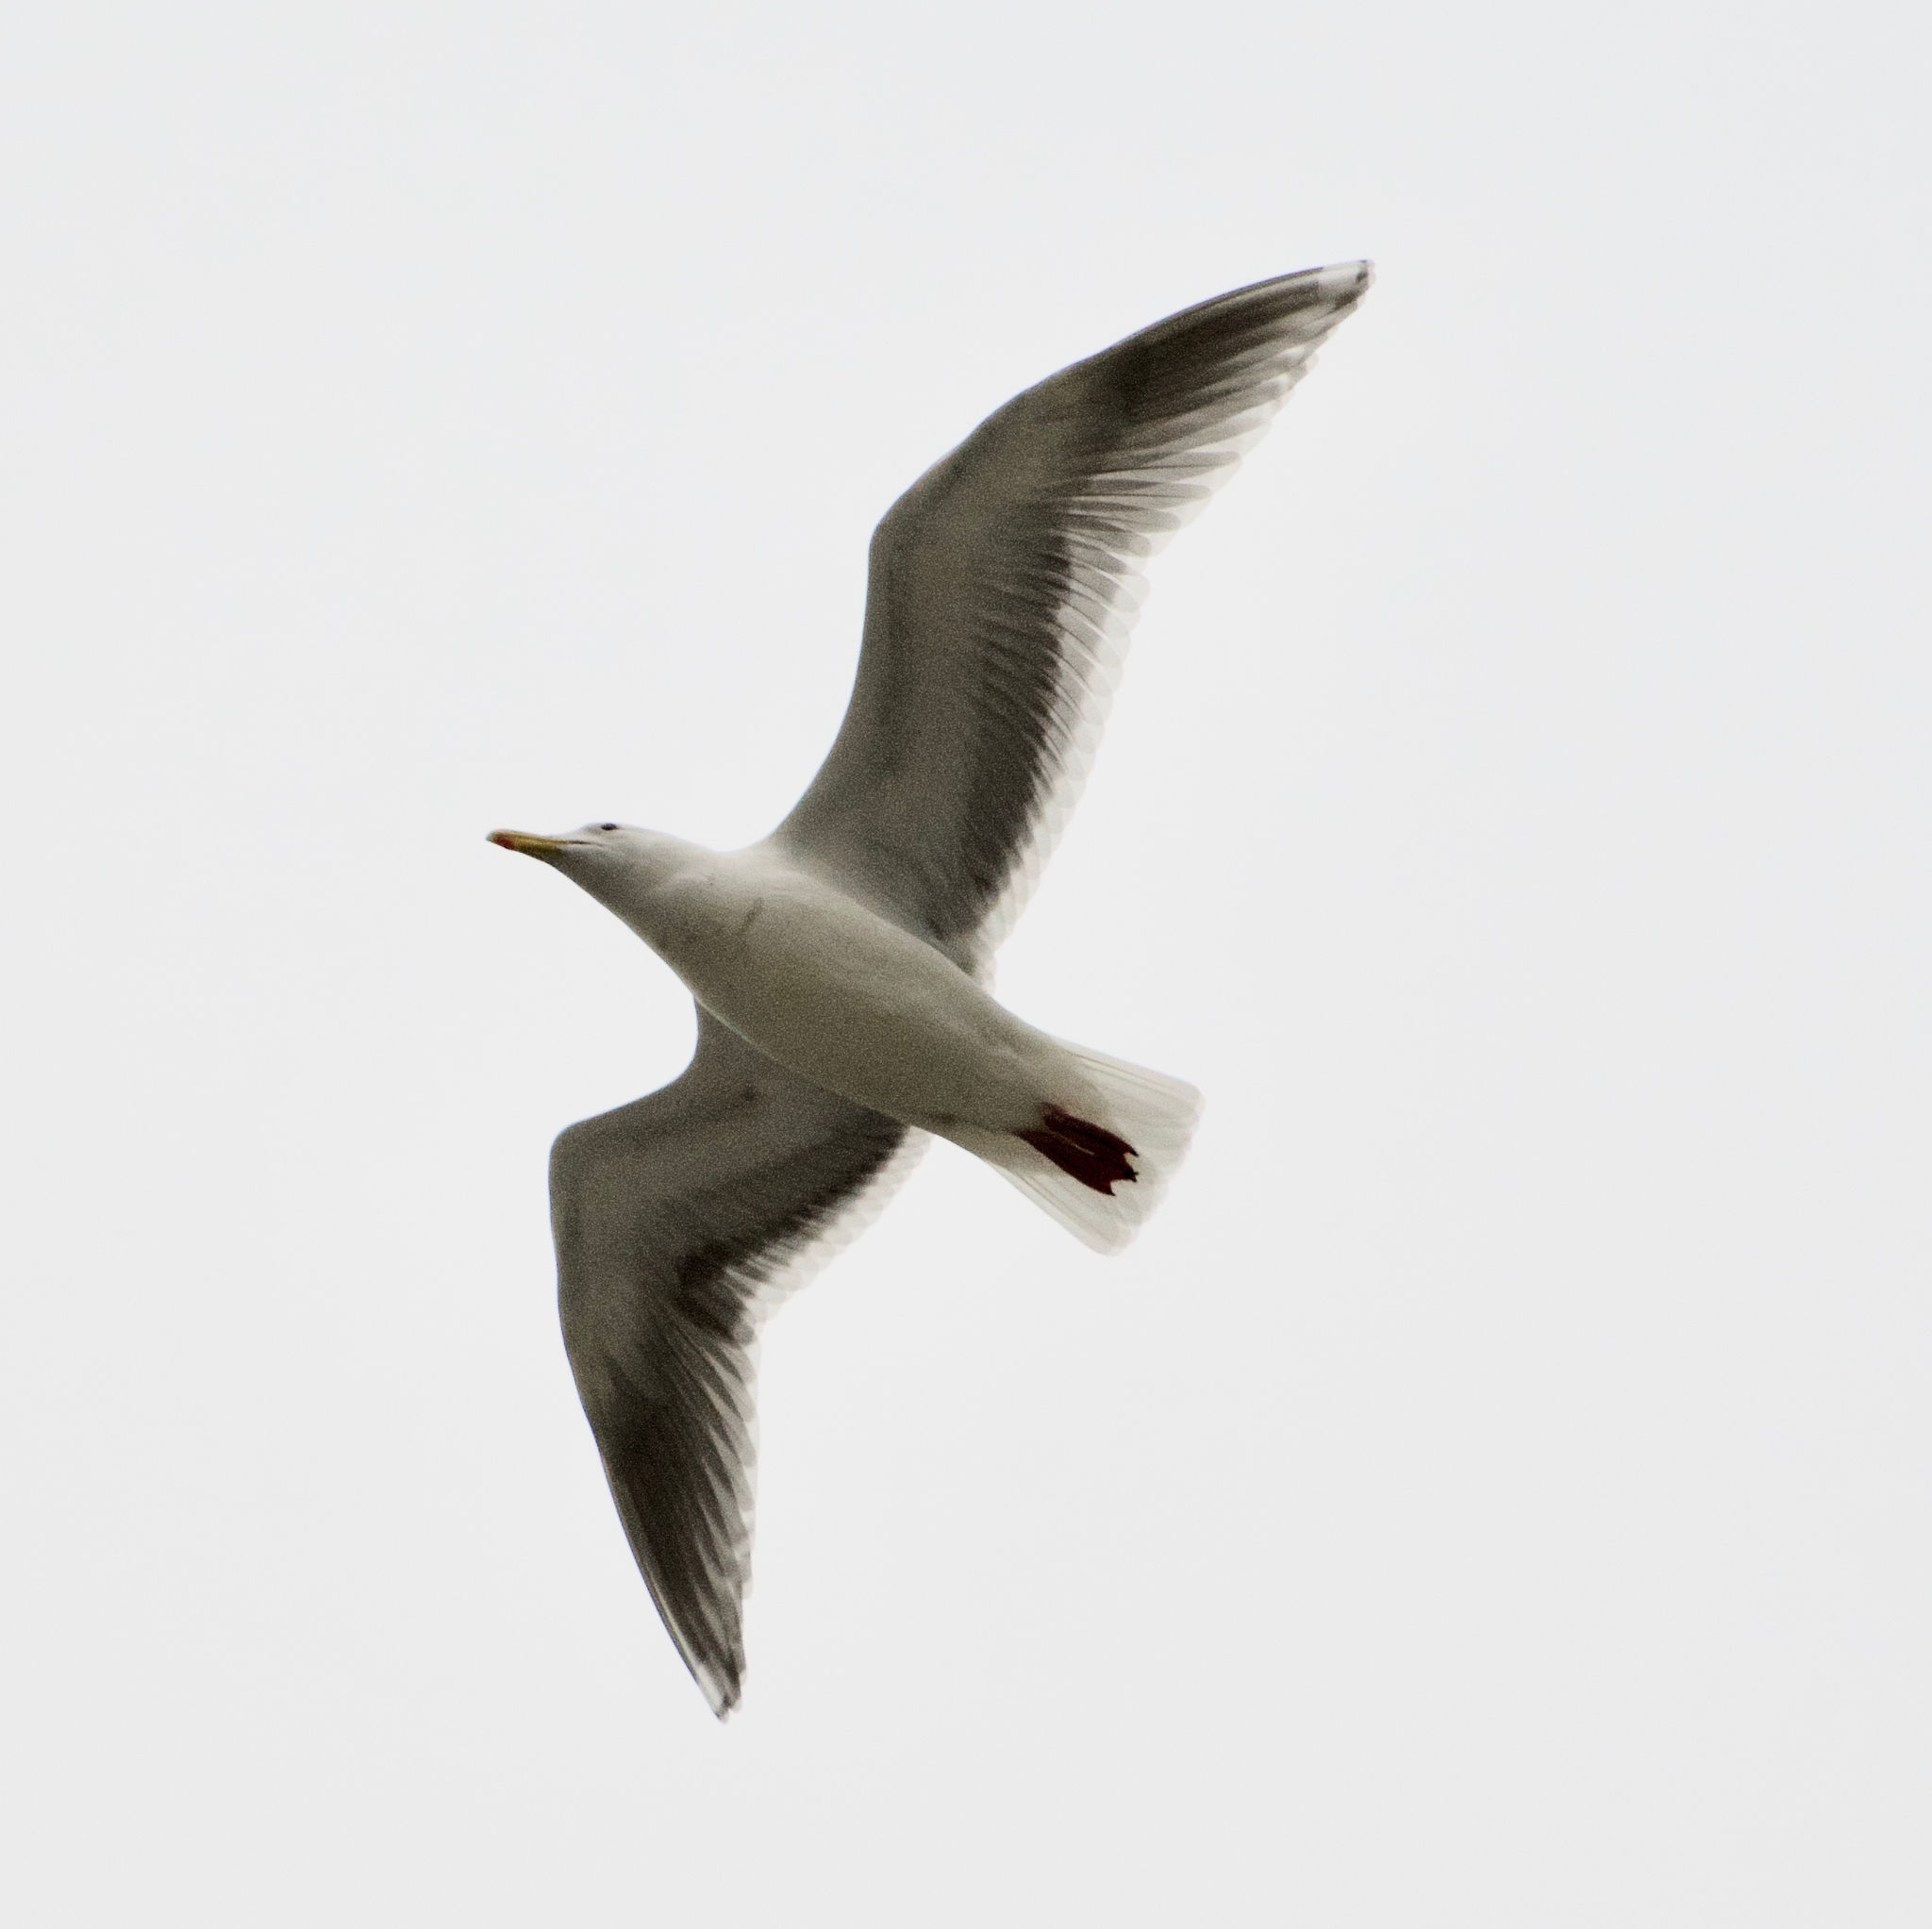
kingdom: Animalia
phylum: Chordata
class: Aves
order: Charadriiformes
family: Laridae
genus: Larus
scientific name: Larus
